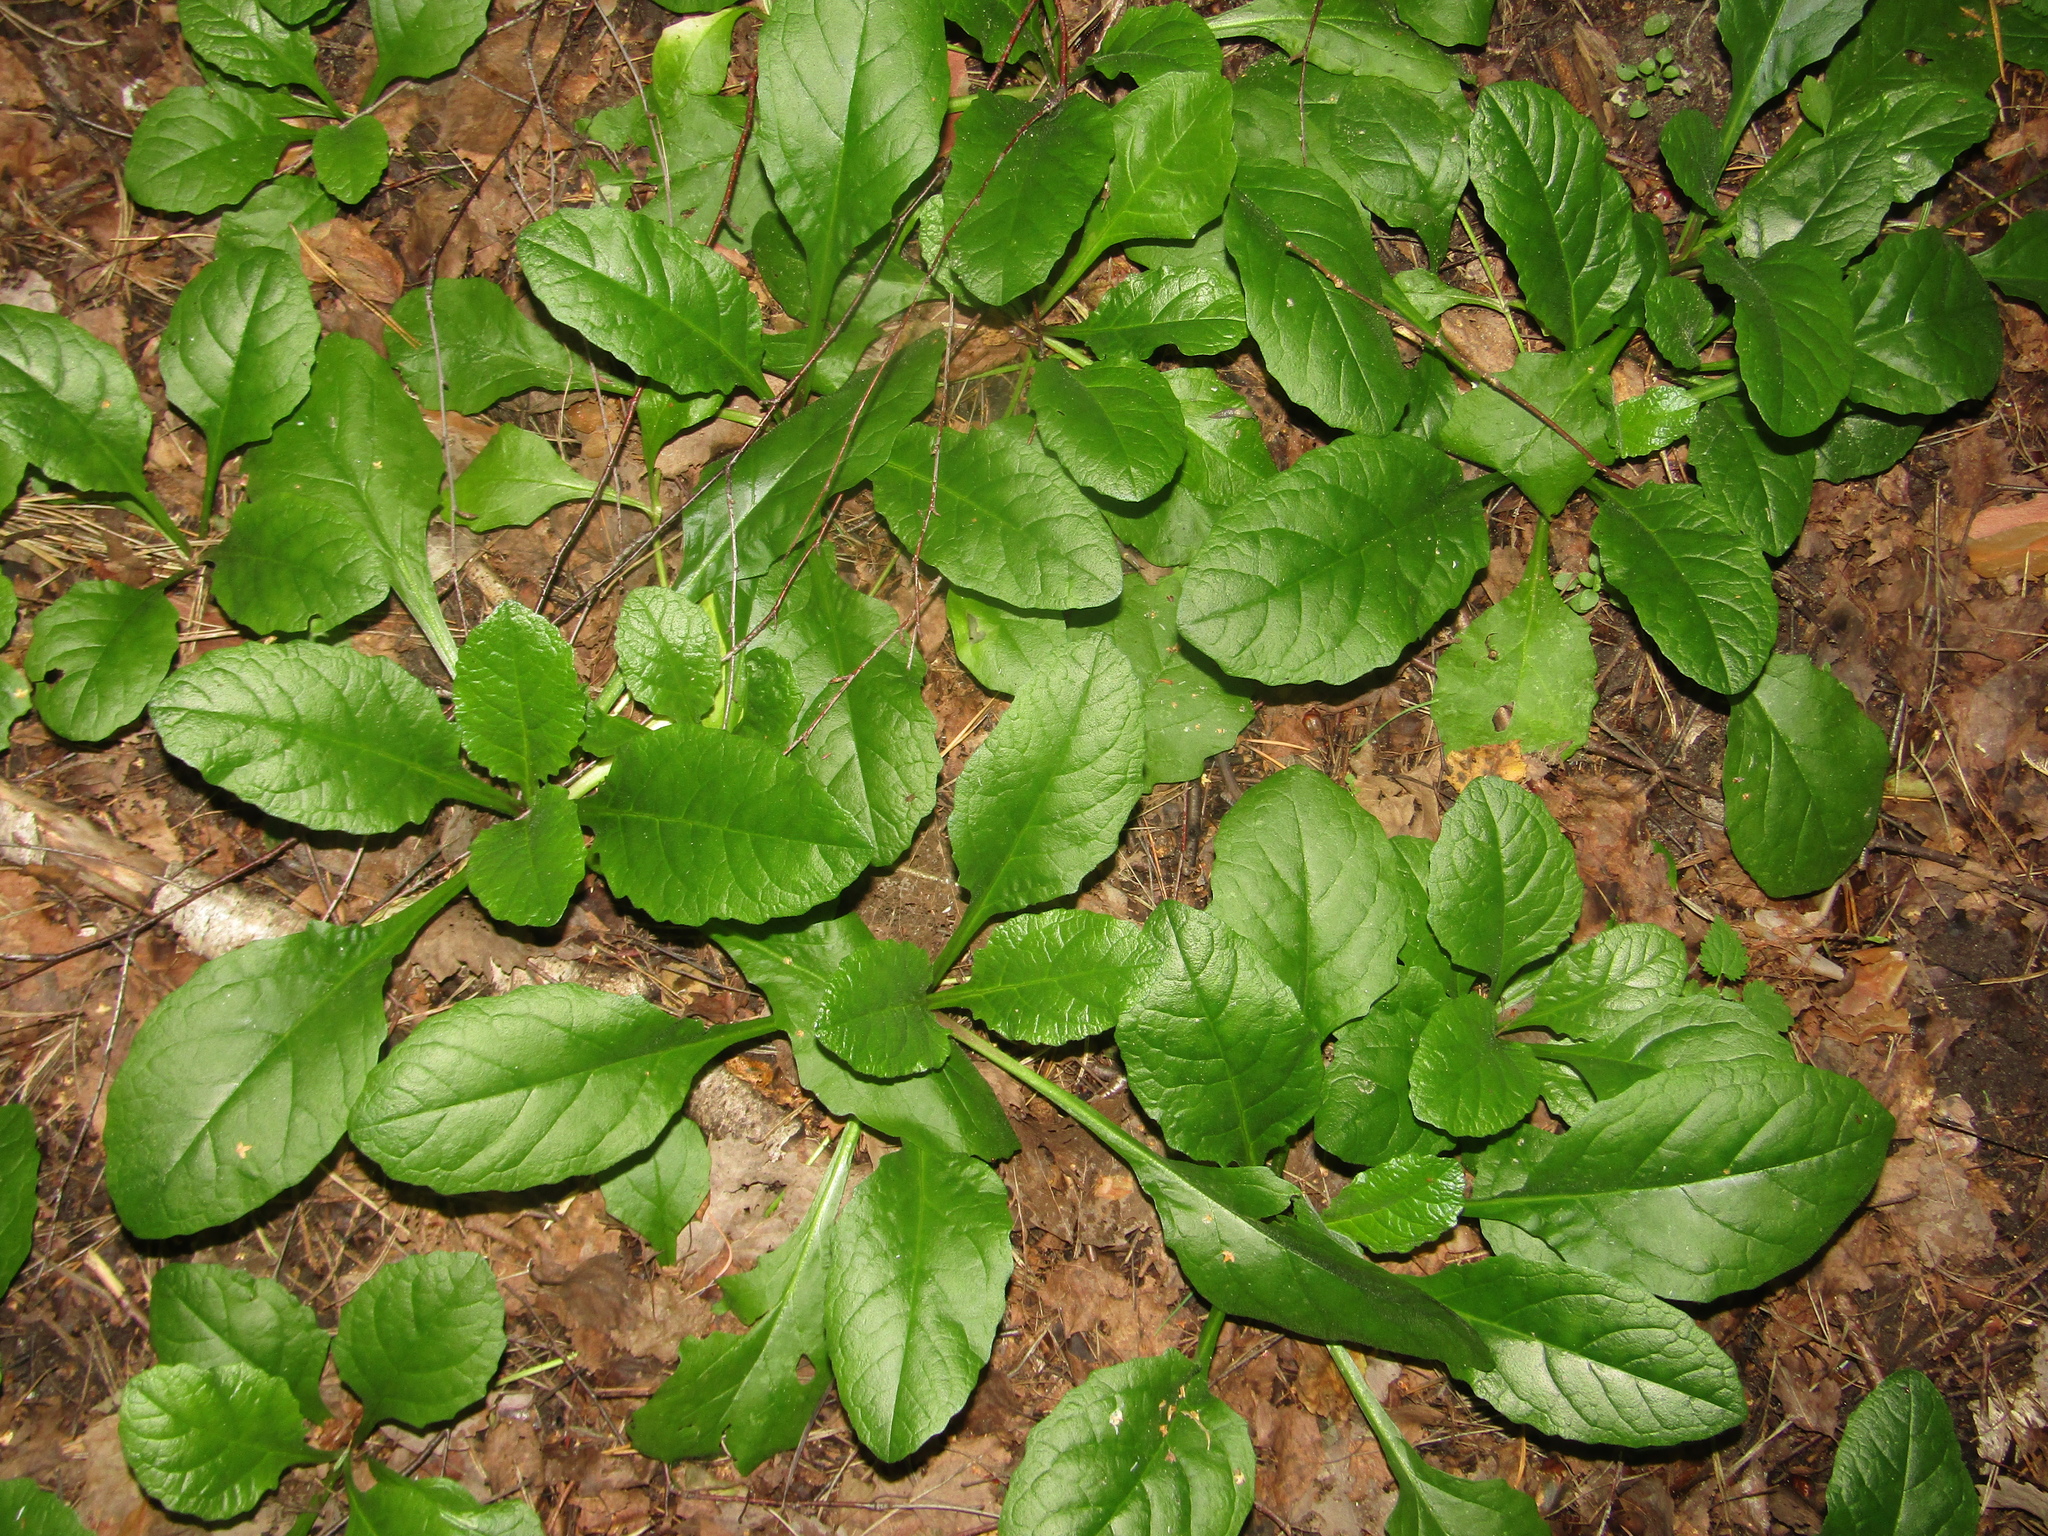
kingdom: Plantae
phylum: Tracheophyta
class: Magnoliopsida
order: Lamiales
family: Lamiaceae
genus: Ajuga
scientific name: Ajuga reptans
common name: Bugle
